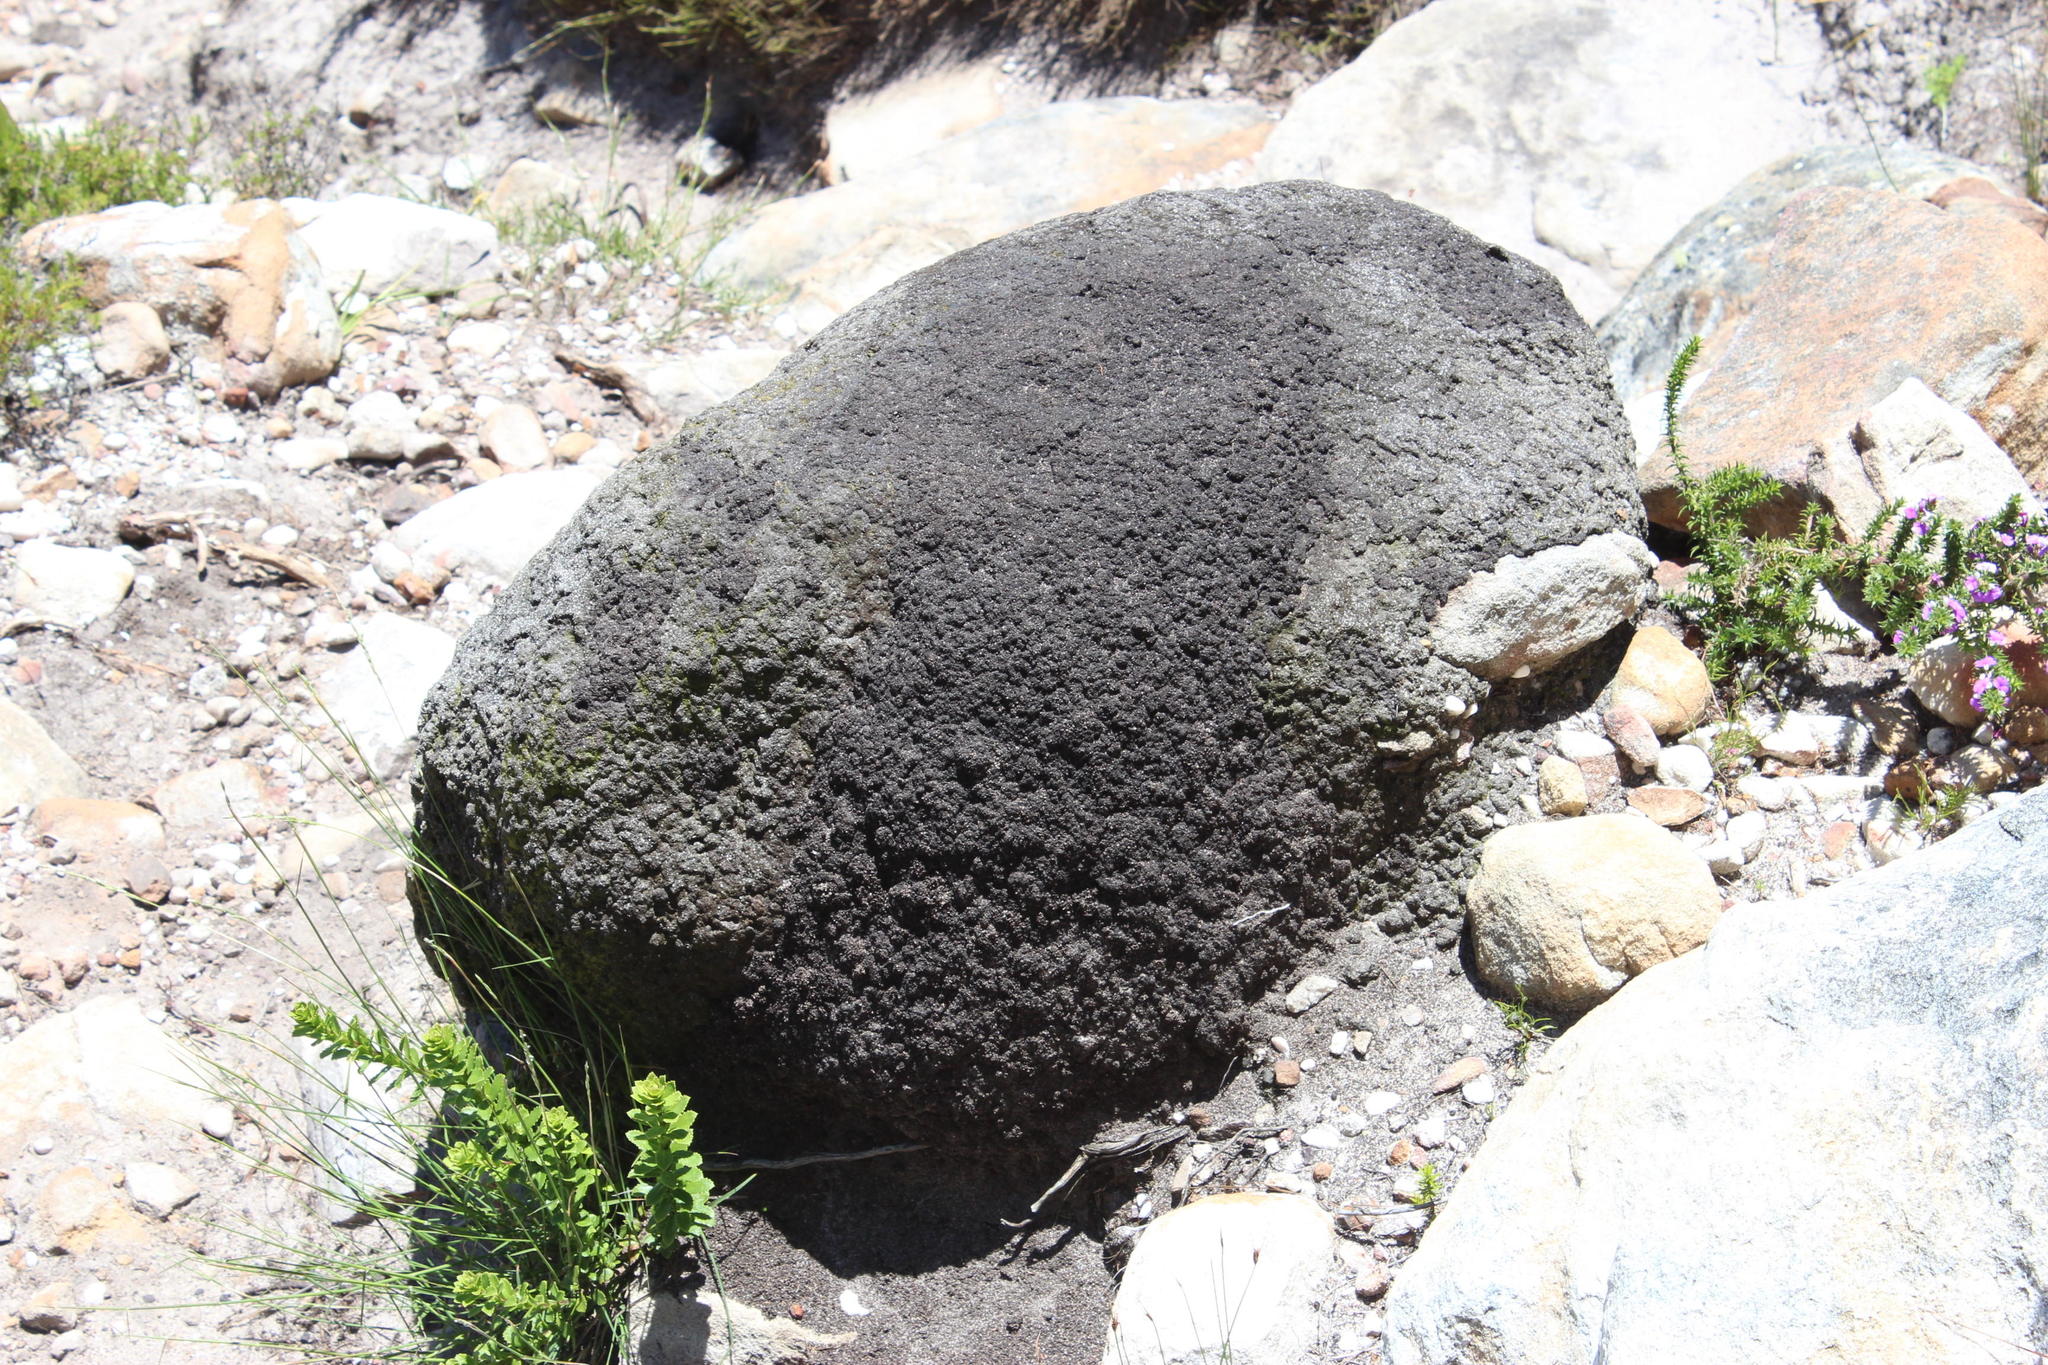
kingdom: Animalia
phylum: Arthropoda
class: Insecta
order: Blattodea
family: Termitidae
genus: Amitermes
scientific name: Amitermes hastatus
